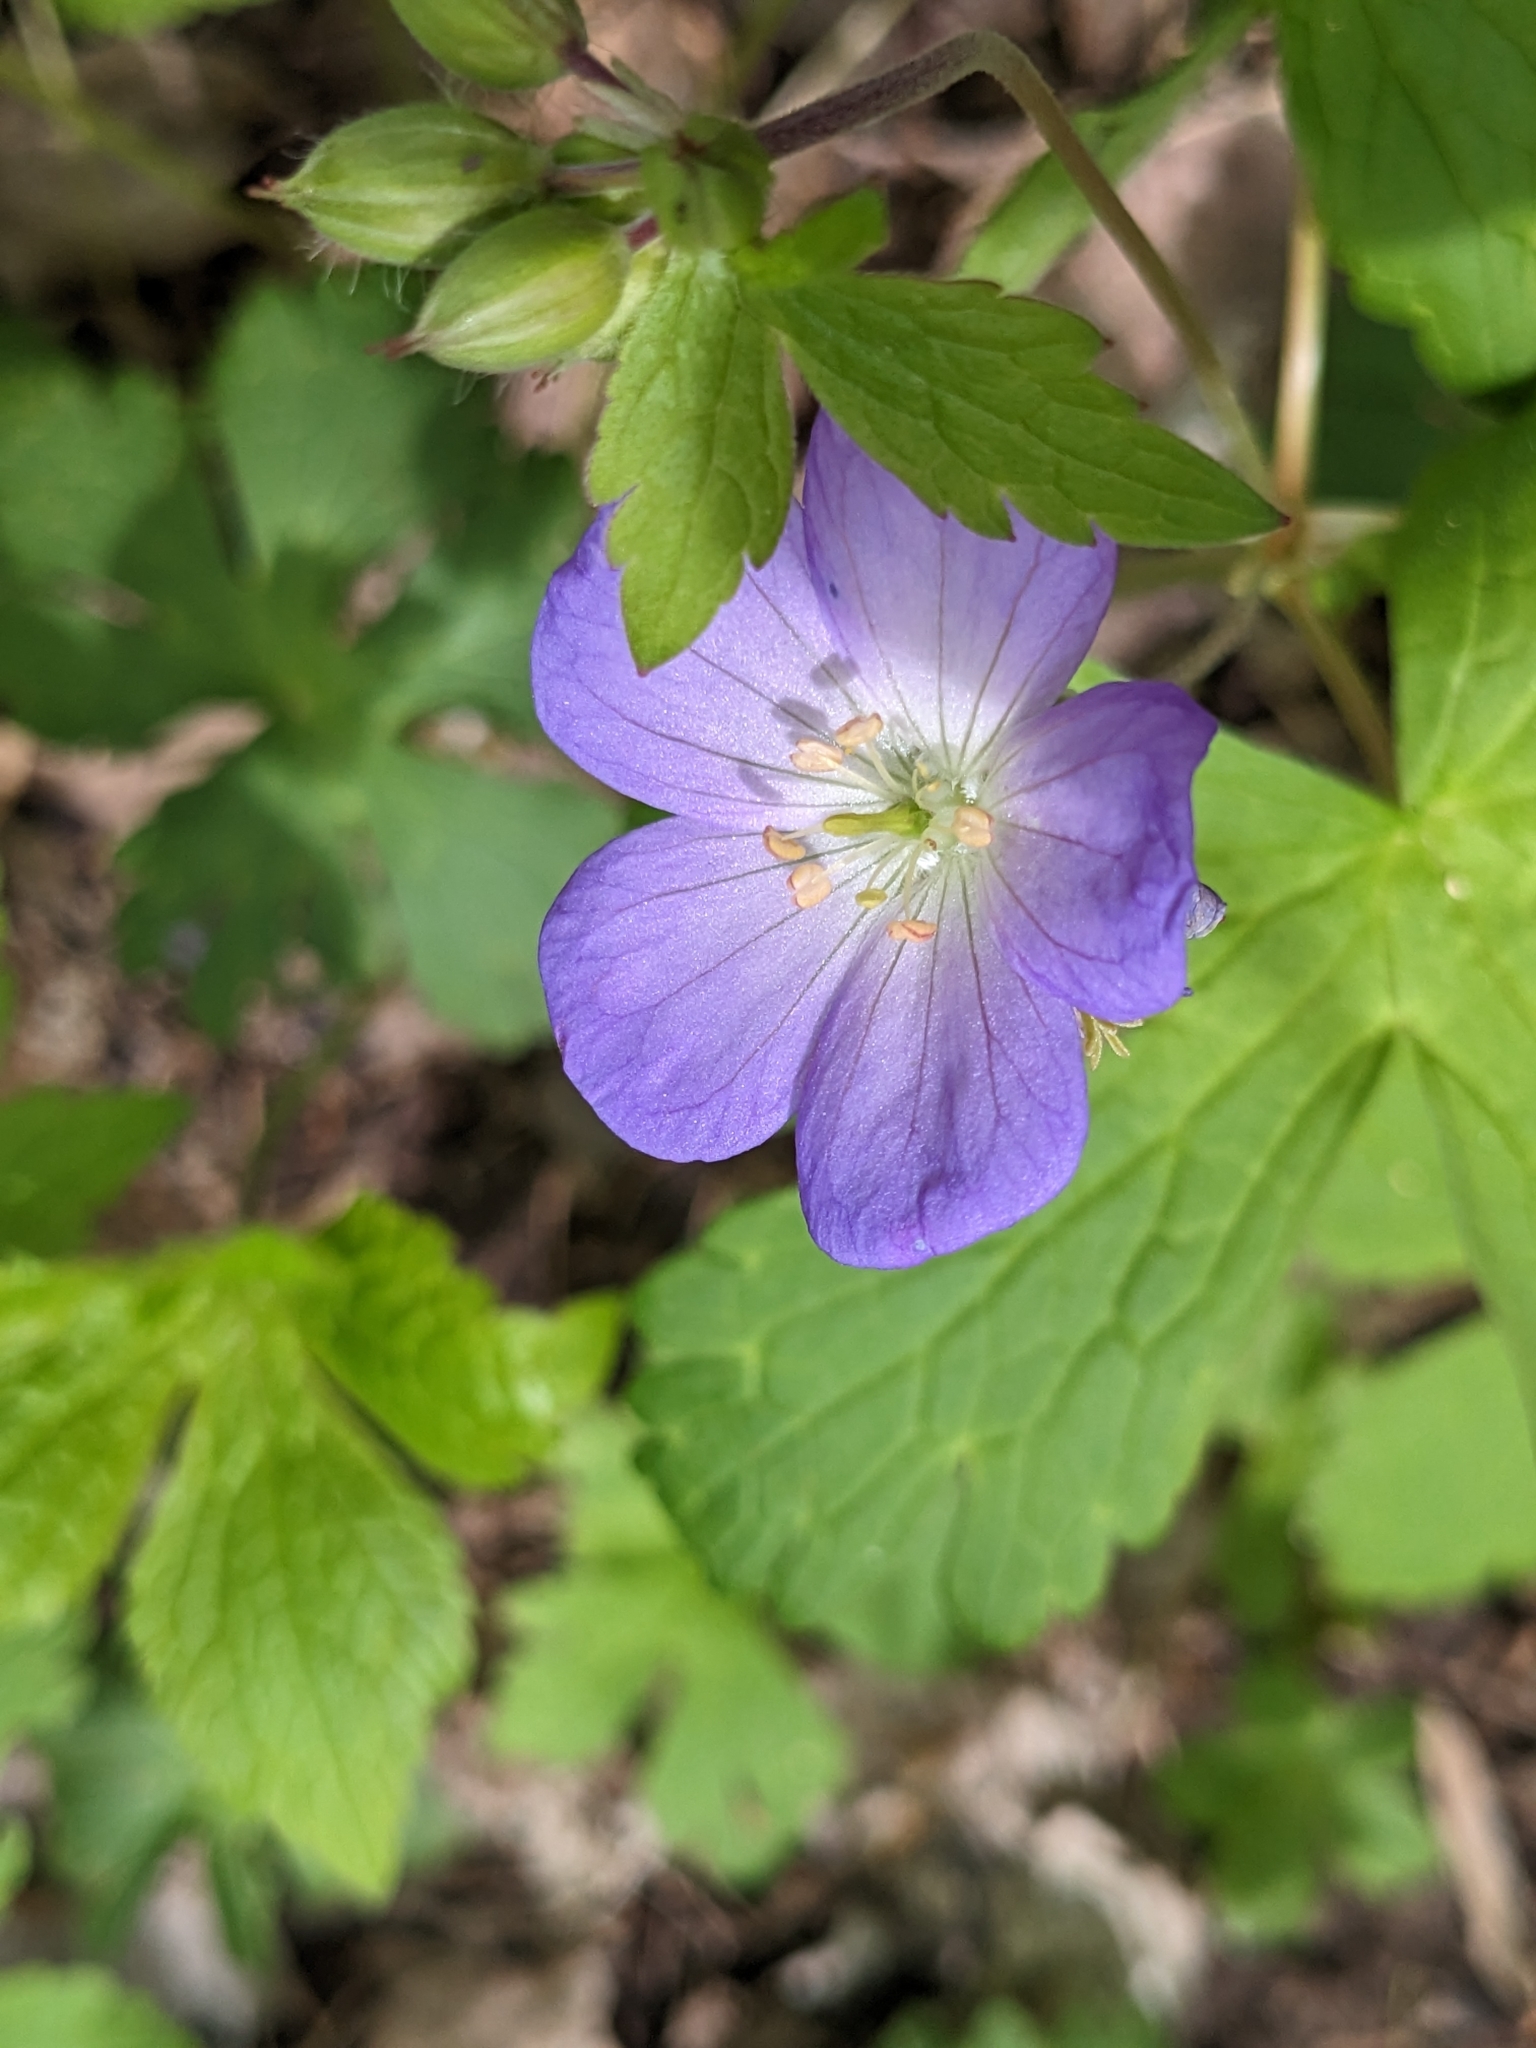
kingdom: Plantae
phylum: Tracheophyta
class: Magnoliopsida
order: Geraniales
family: Geraniaceae
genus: Geranium
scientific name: Geranium maculatum
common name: Spotted geranium
